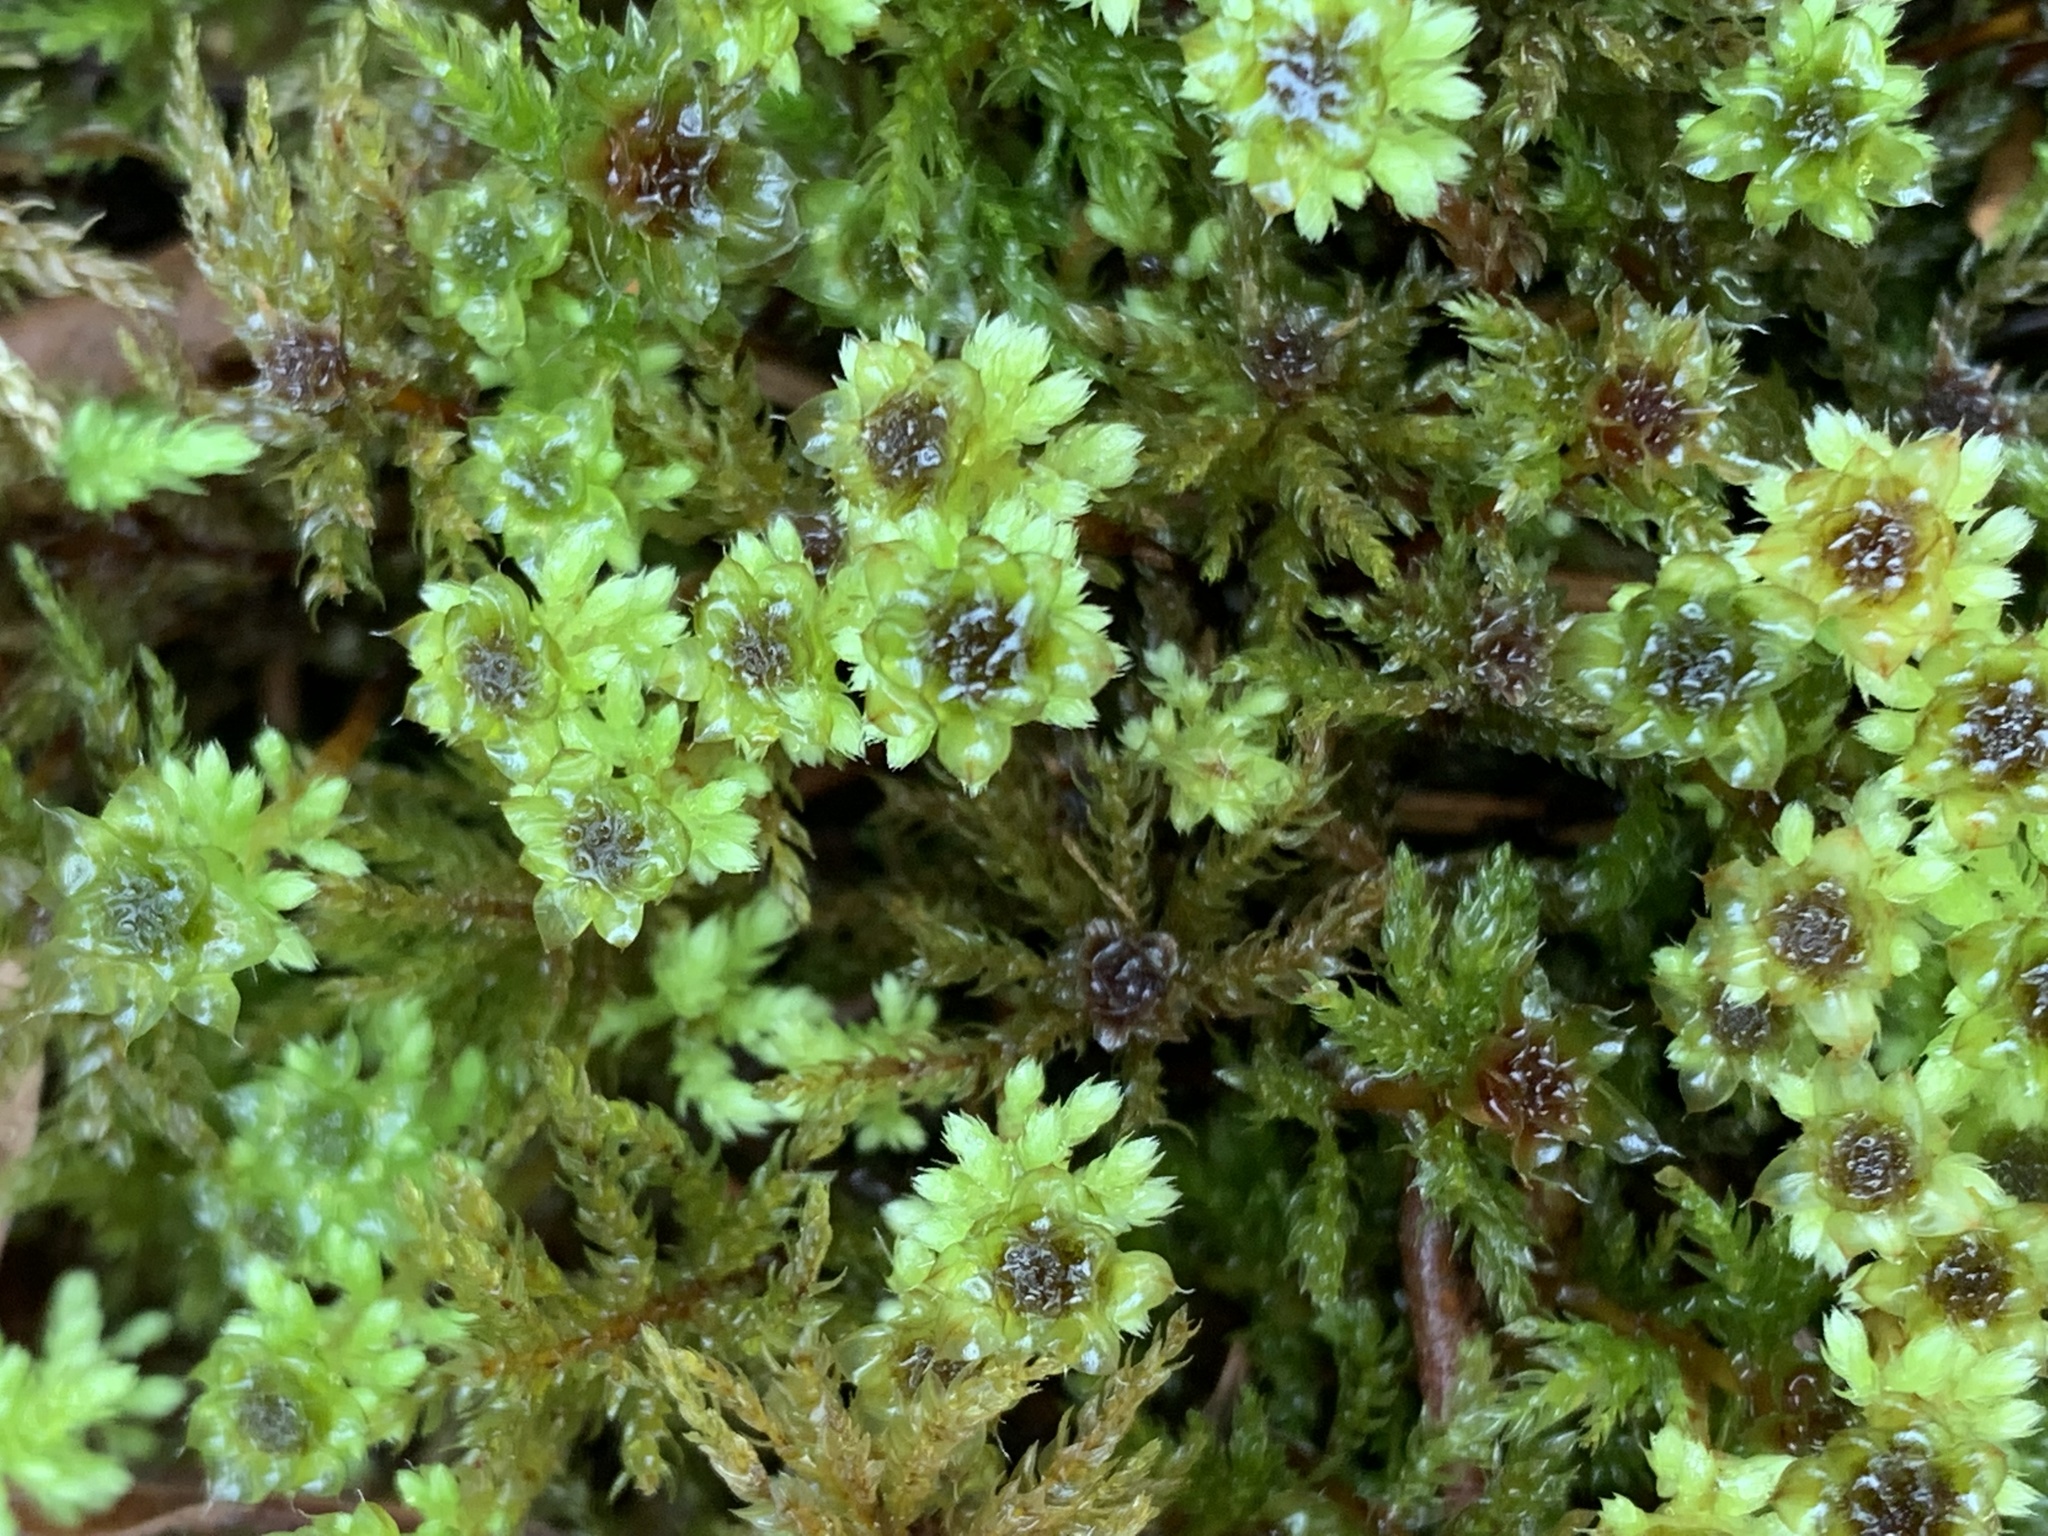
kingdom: Plantae
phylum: Bryophyta
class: Bryopsida
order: Bryales
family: Mniaceae
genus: Leucolepis
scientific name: Leucolepis acanthoneura
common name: Leucolepis umbrella moss
